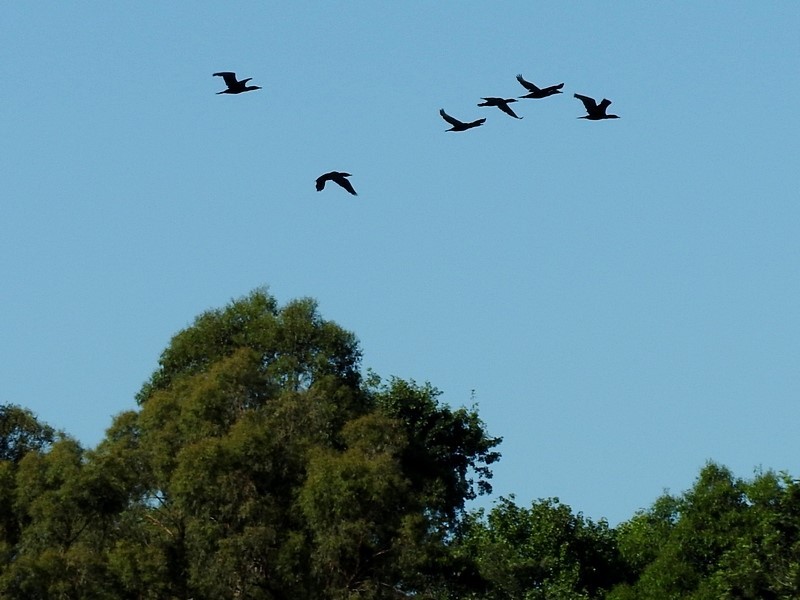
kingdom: Animalia
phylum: Chordata
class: Aves
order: Suliformes
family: Phalacrocoracidae
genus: Phalacrocorax
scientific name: Phalacrocorax sulcirostris
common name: Little black cormorant
